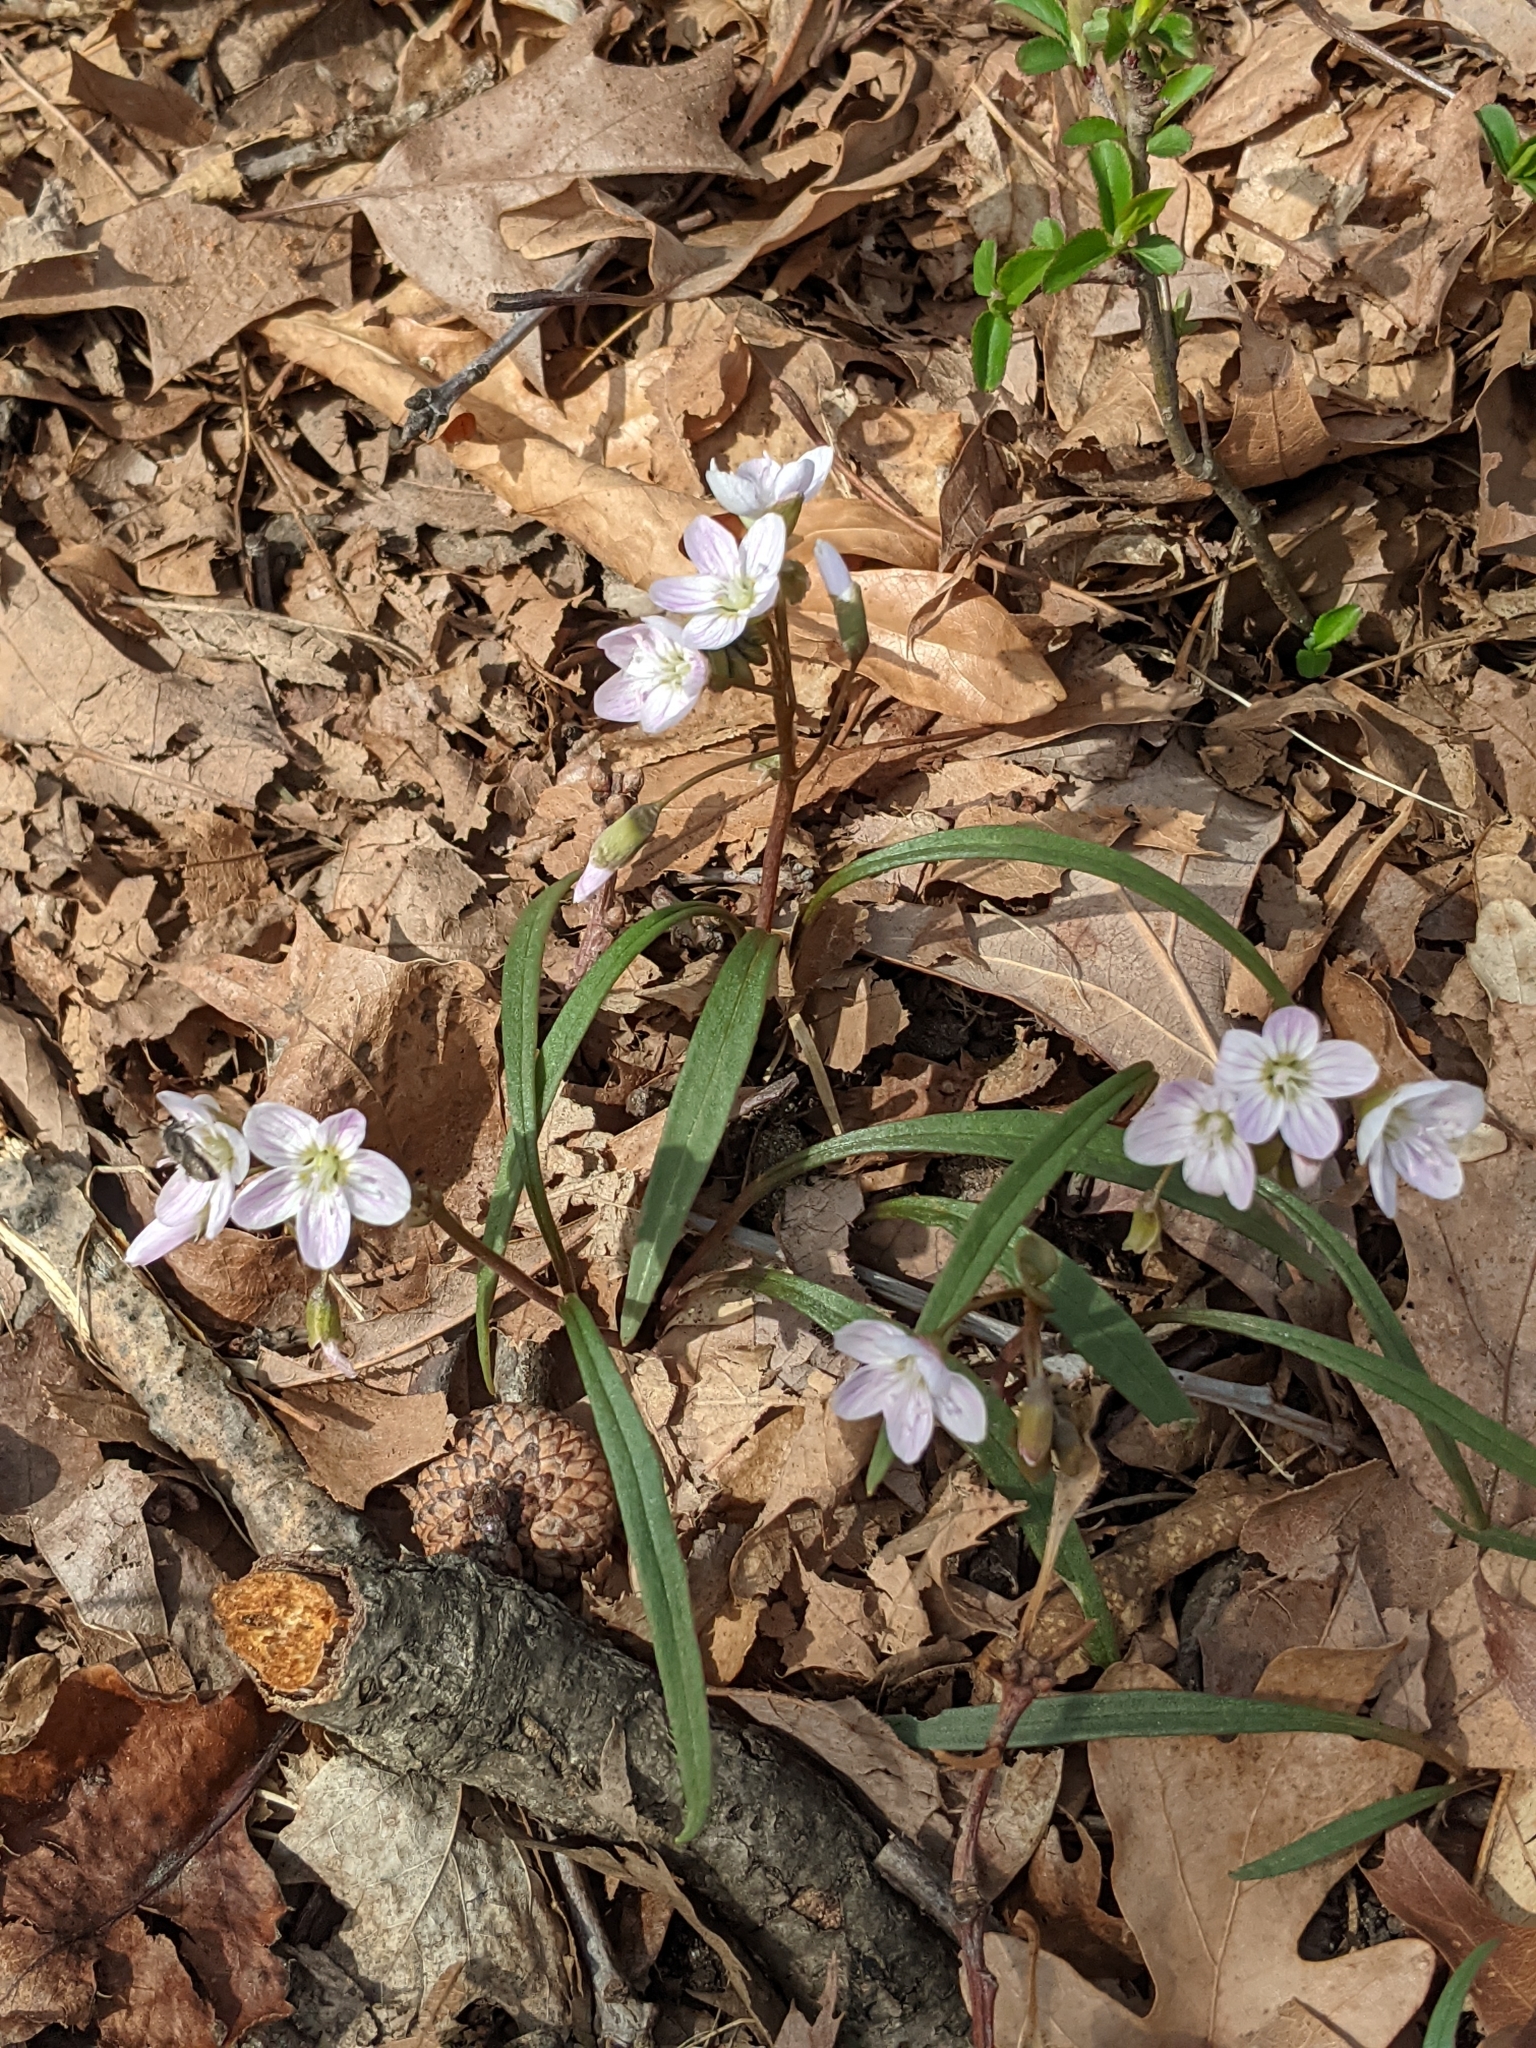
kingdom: Plantae
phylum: Tracheophyta
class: Magnoliopsida
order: Caryophyllales
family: Montiaceae
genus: Claytonia
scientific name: Claytonia virginica
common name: Virginia springbeauty
